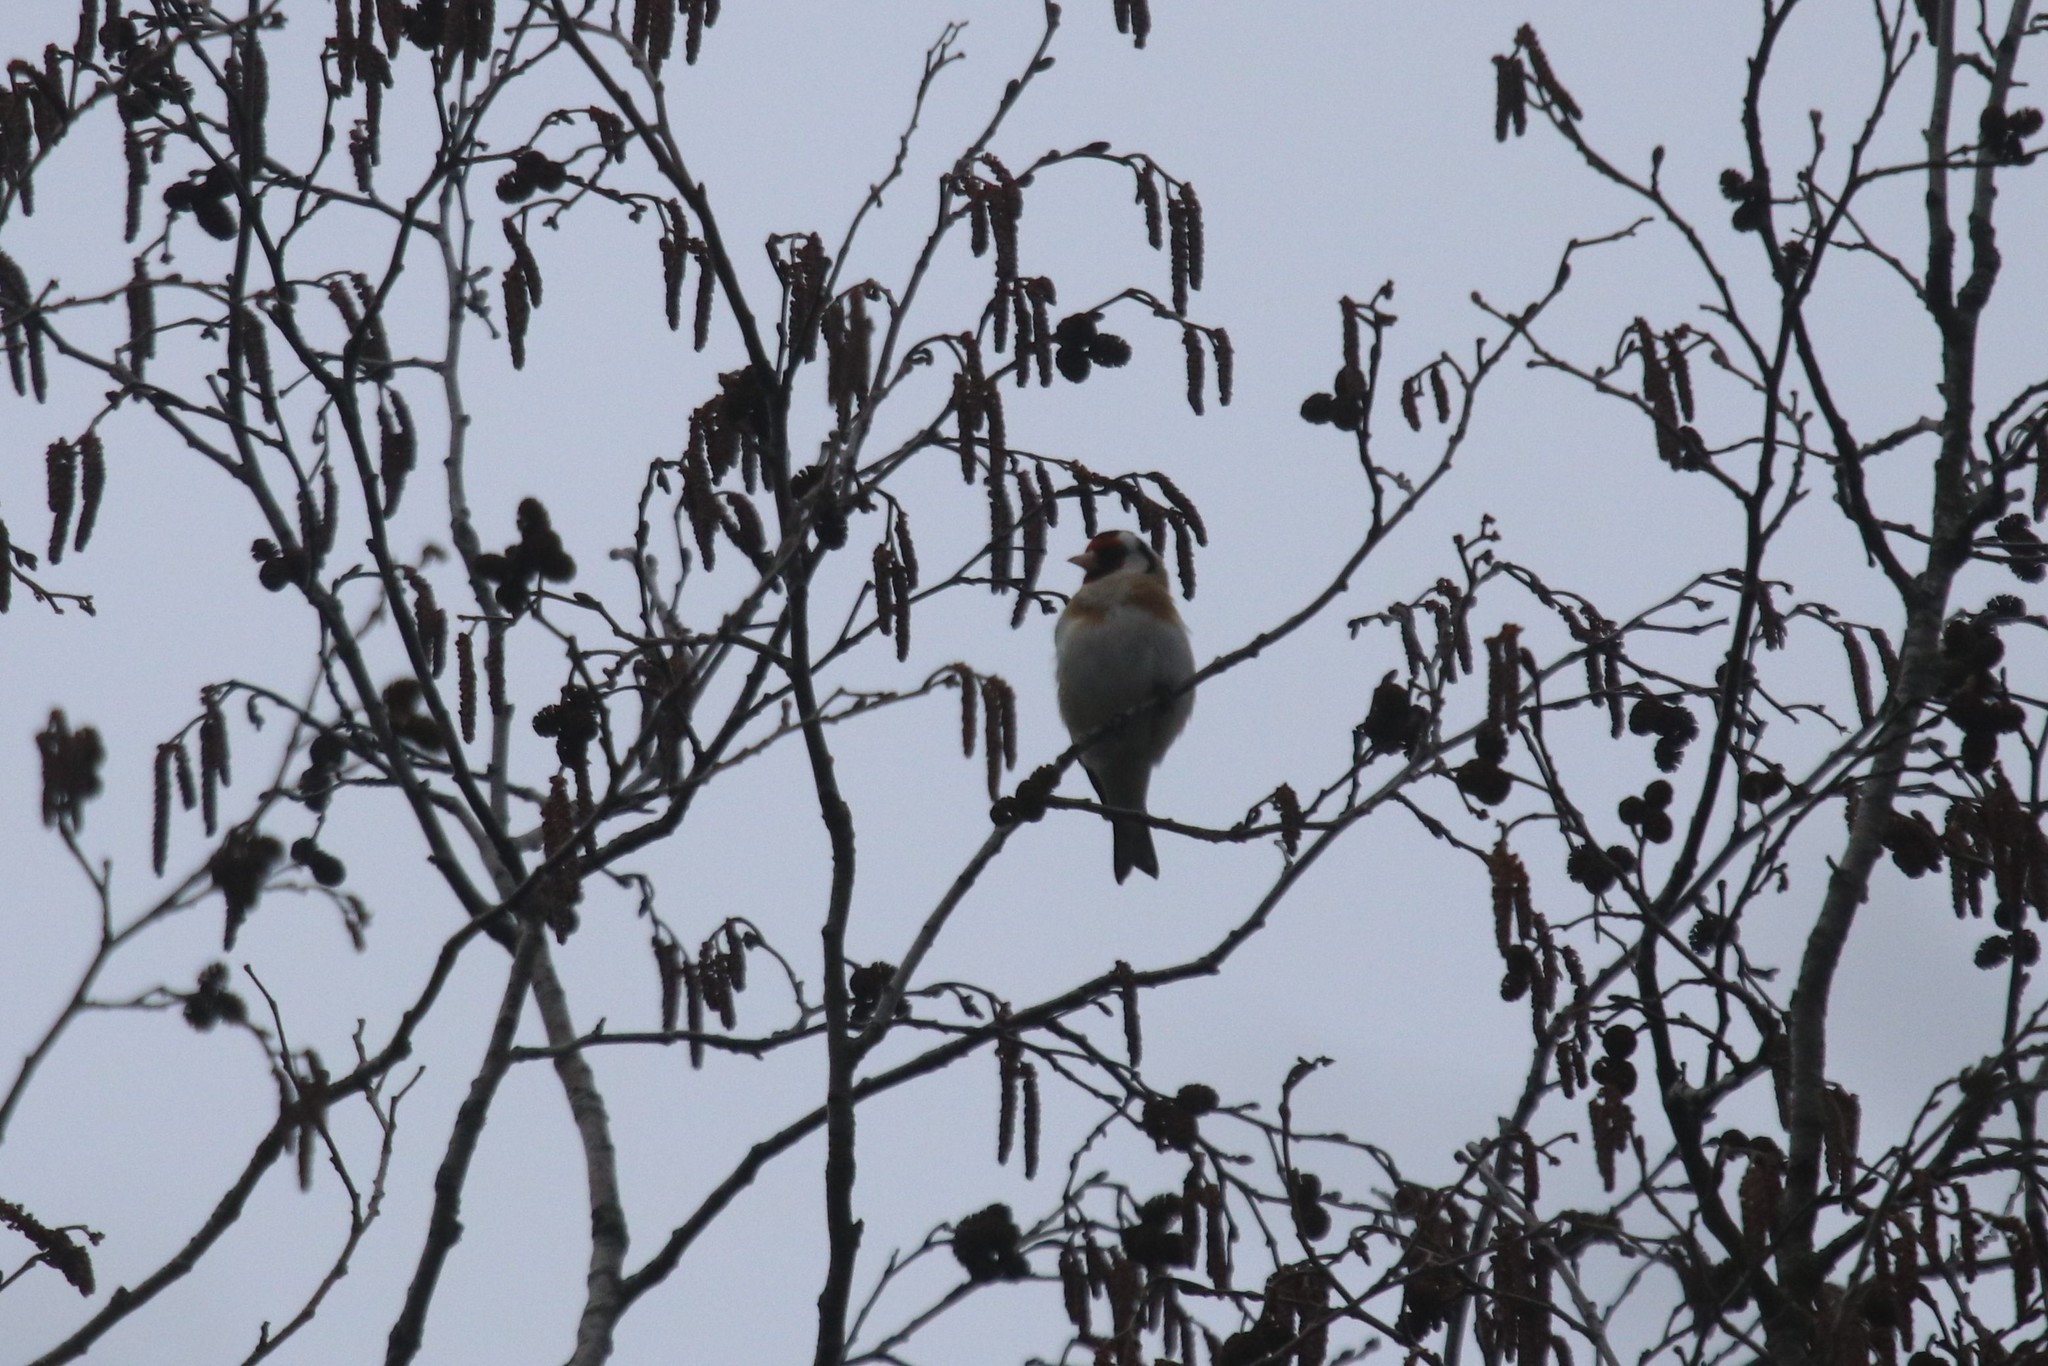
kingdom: Animalia
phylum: Chordata
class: Aves
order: Passeriformes
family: Fringillidae
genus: Carduelis
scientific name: Carduelis carduelis
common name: European goldfinch
